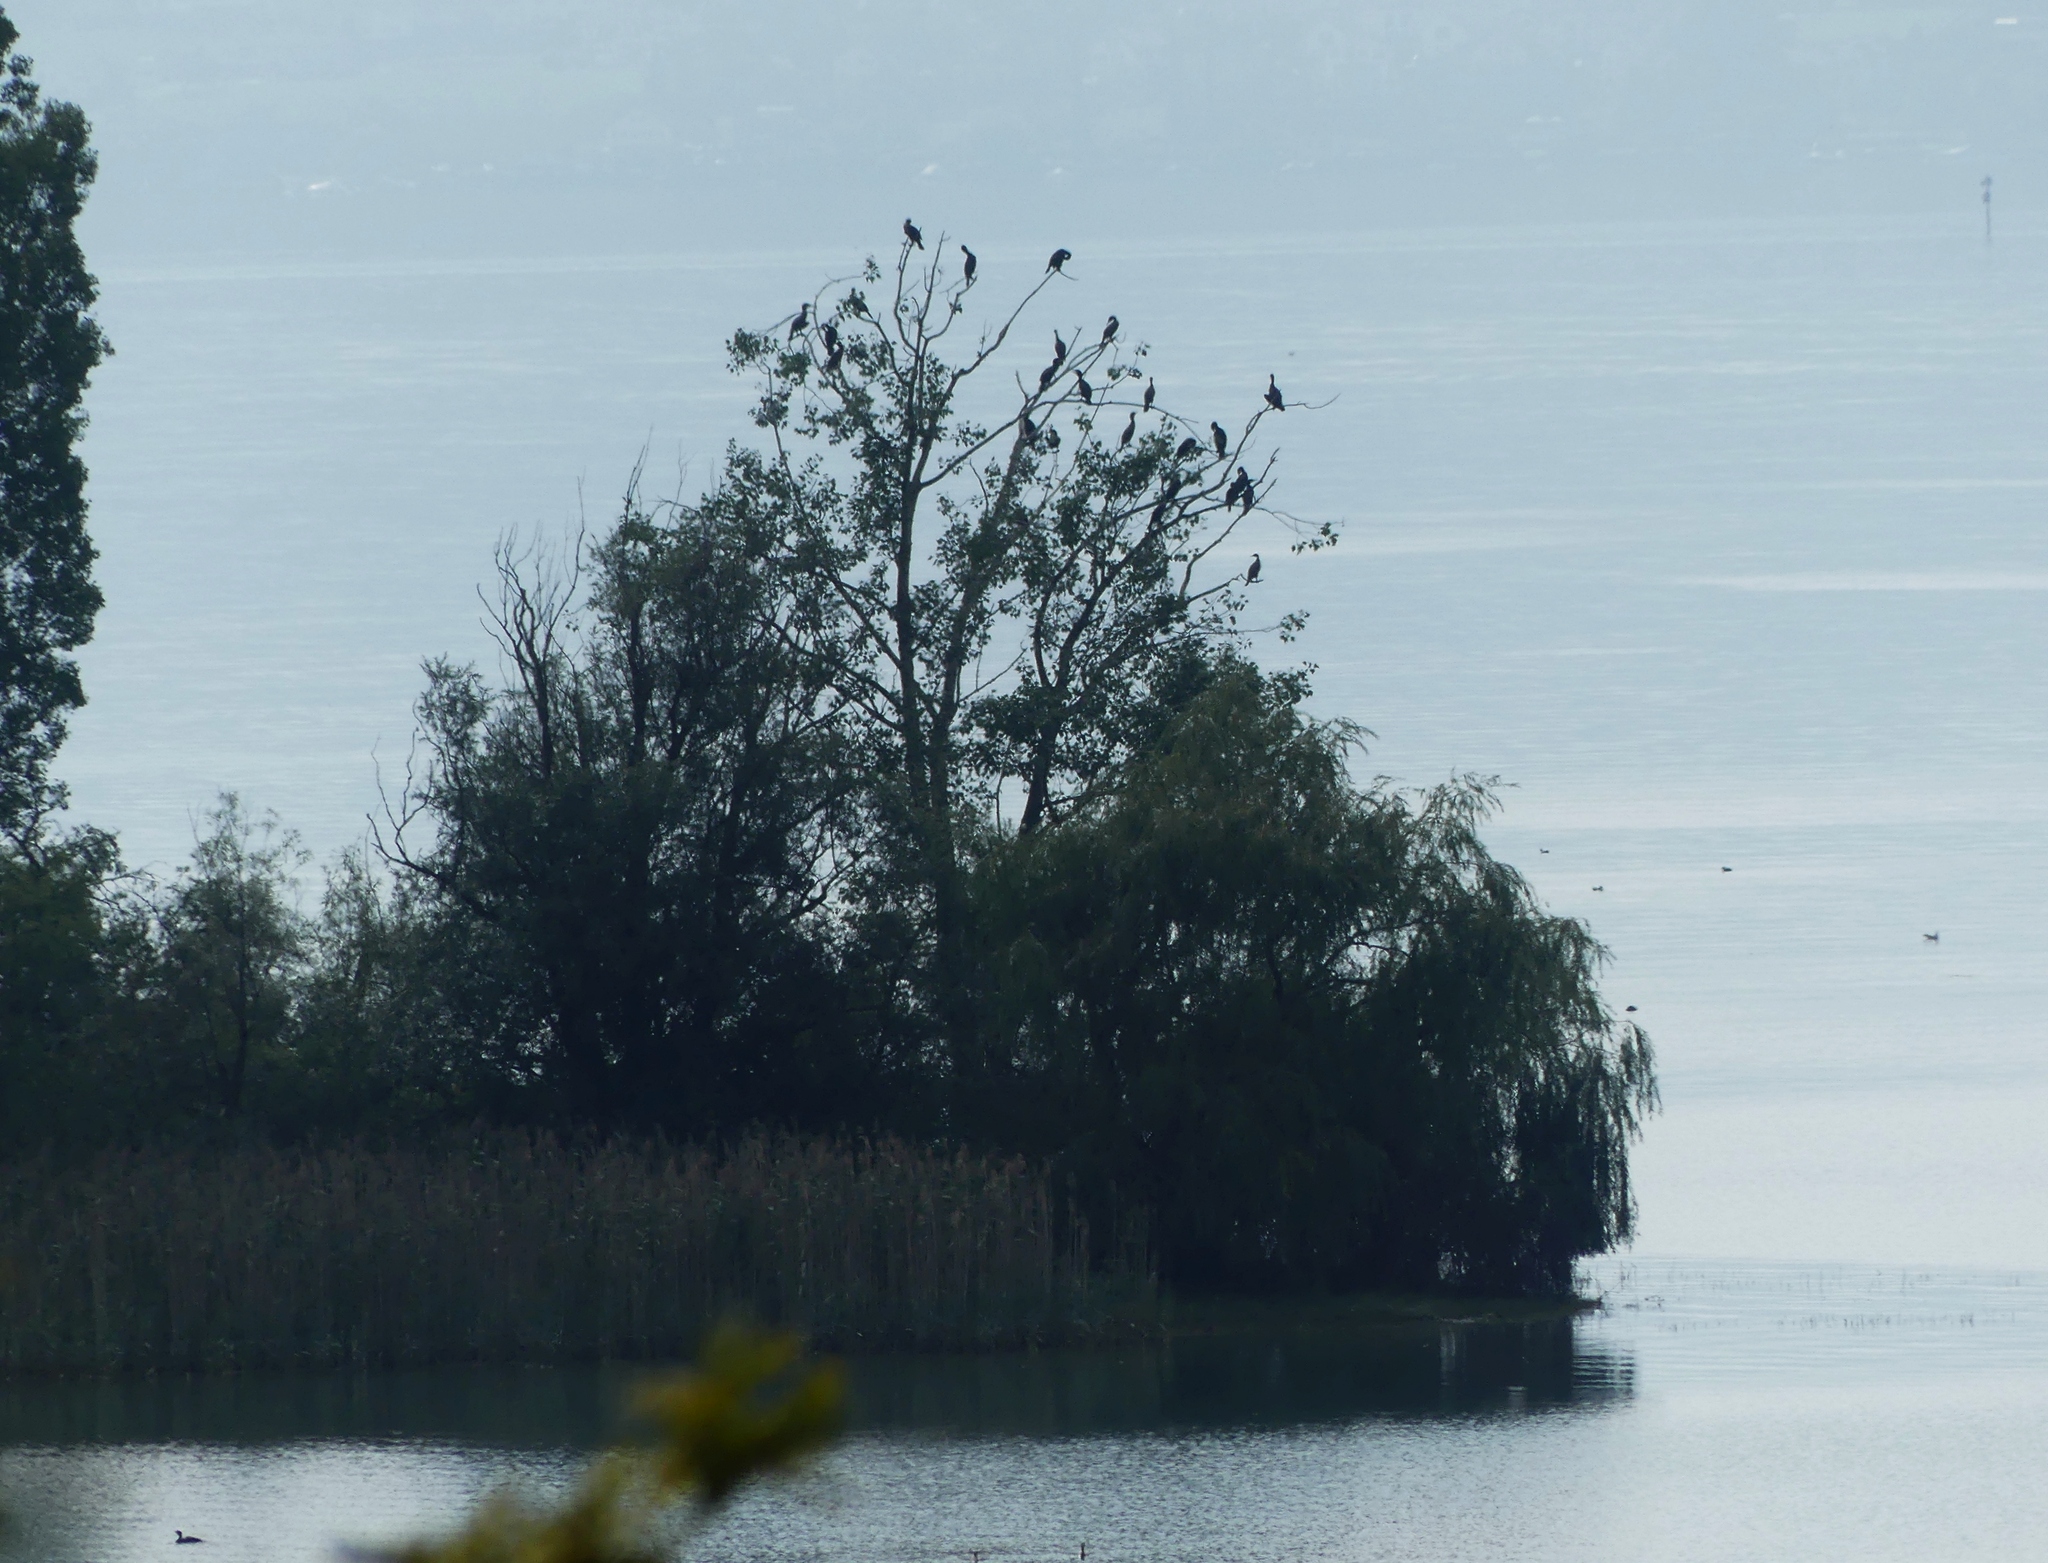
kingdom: Animalia
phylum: Chordata
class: Aves
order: Suliformes
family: Phalacrocoracidae
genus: Phalacrocorax
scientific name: Phalacrocorax carbo
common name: Great cormorant
